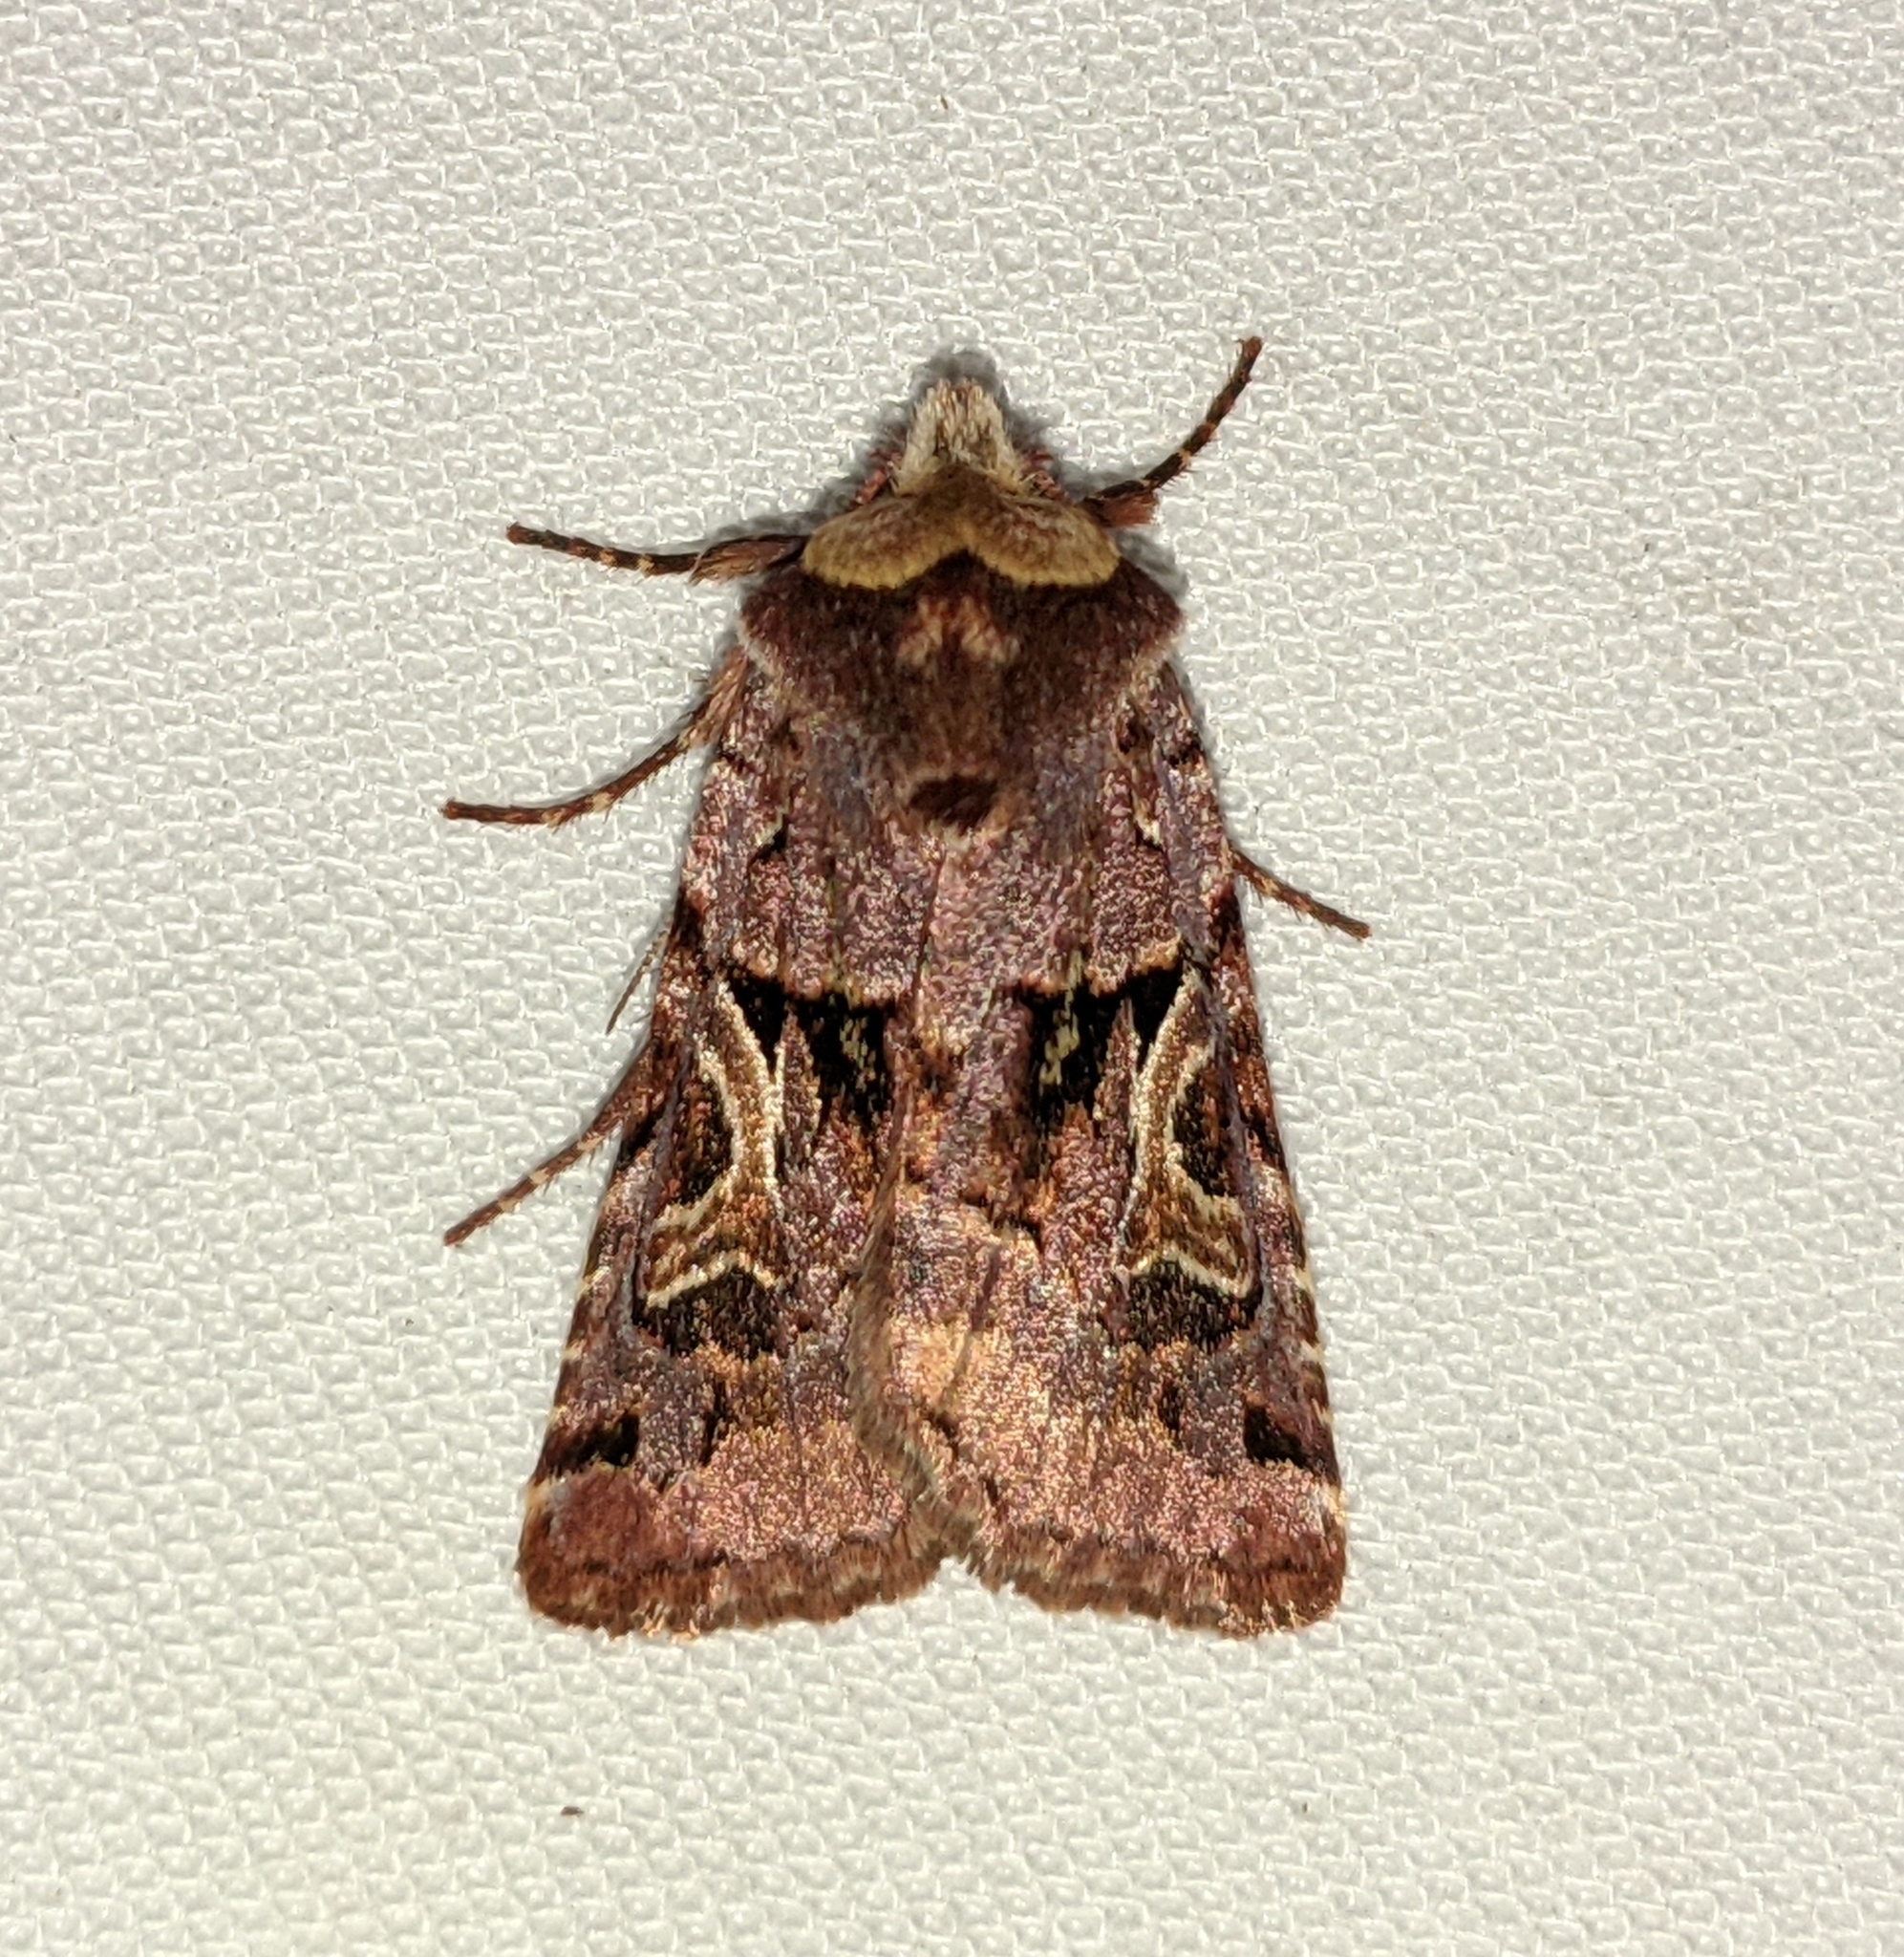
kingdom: Animalia
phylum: Arthropoda
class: Insecta
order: Lepidoptera
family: Noctuidae
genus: Cerastis
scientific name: Cerastis enigmatica
